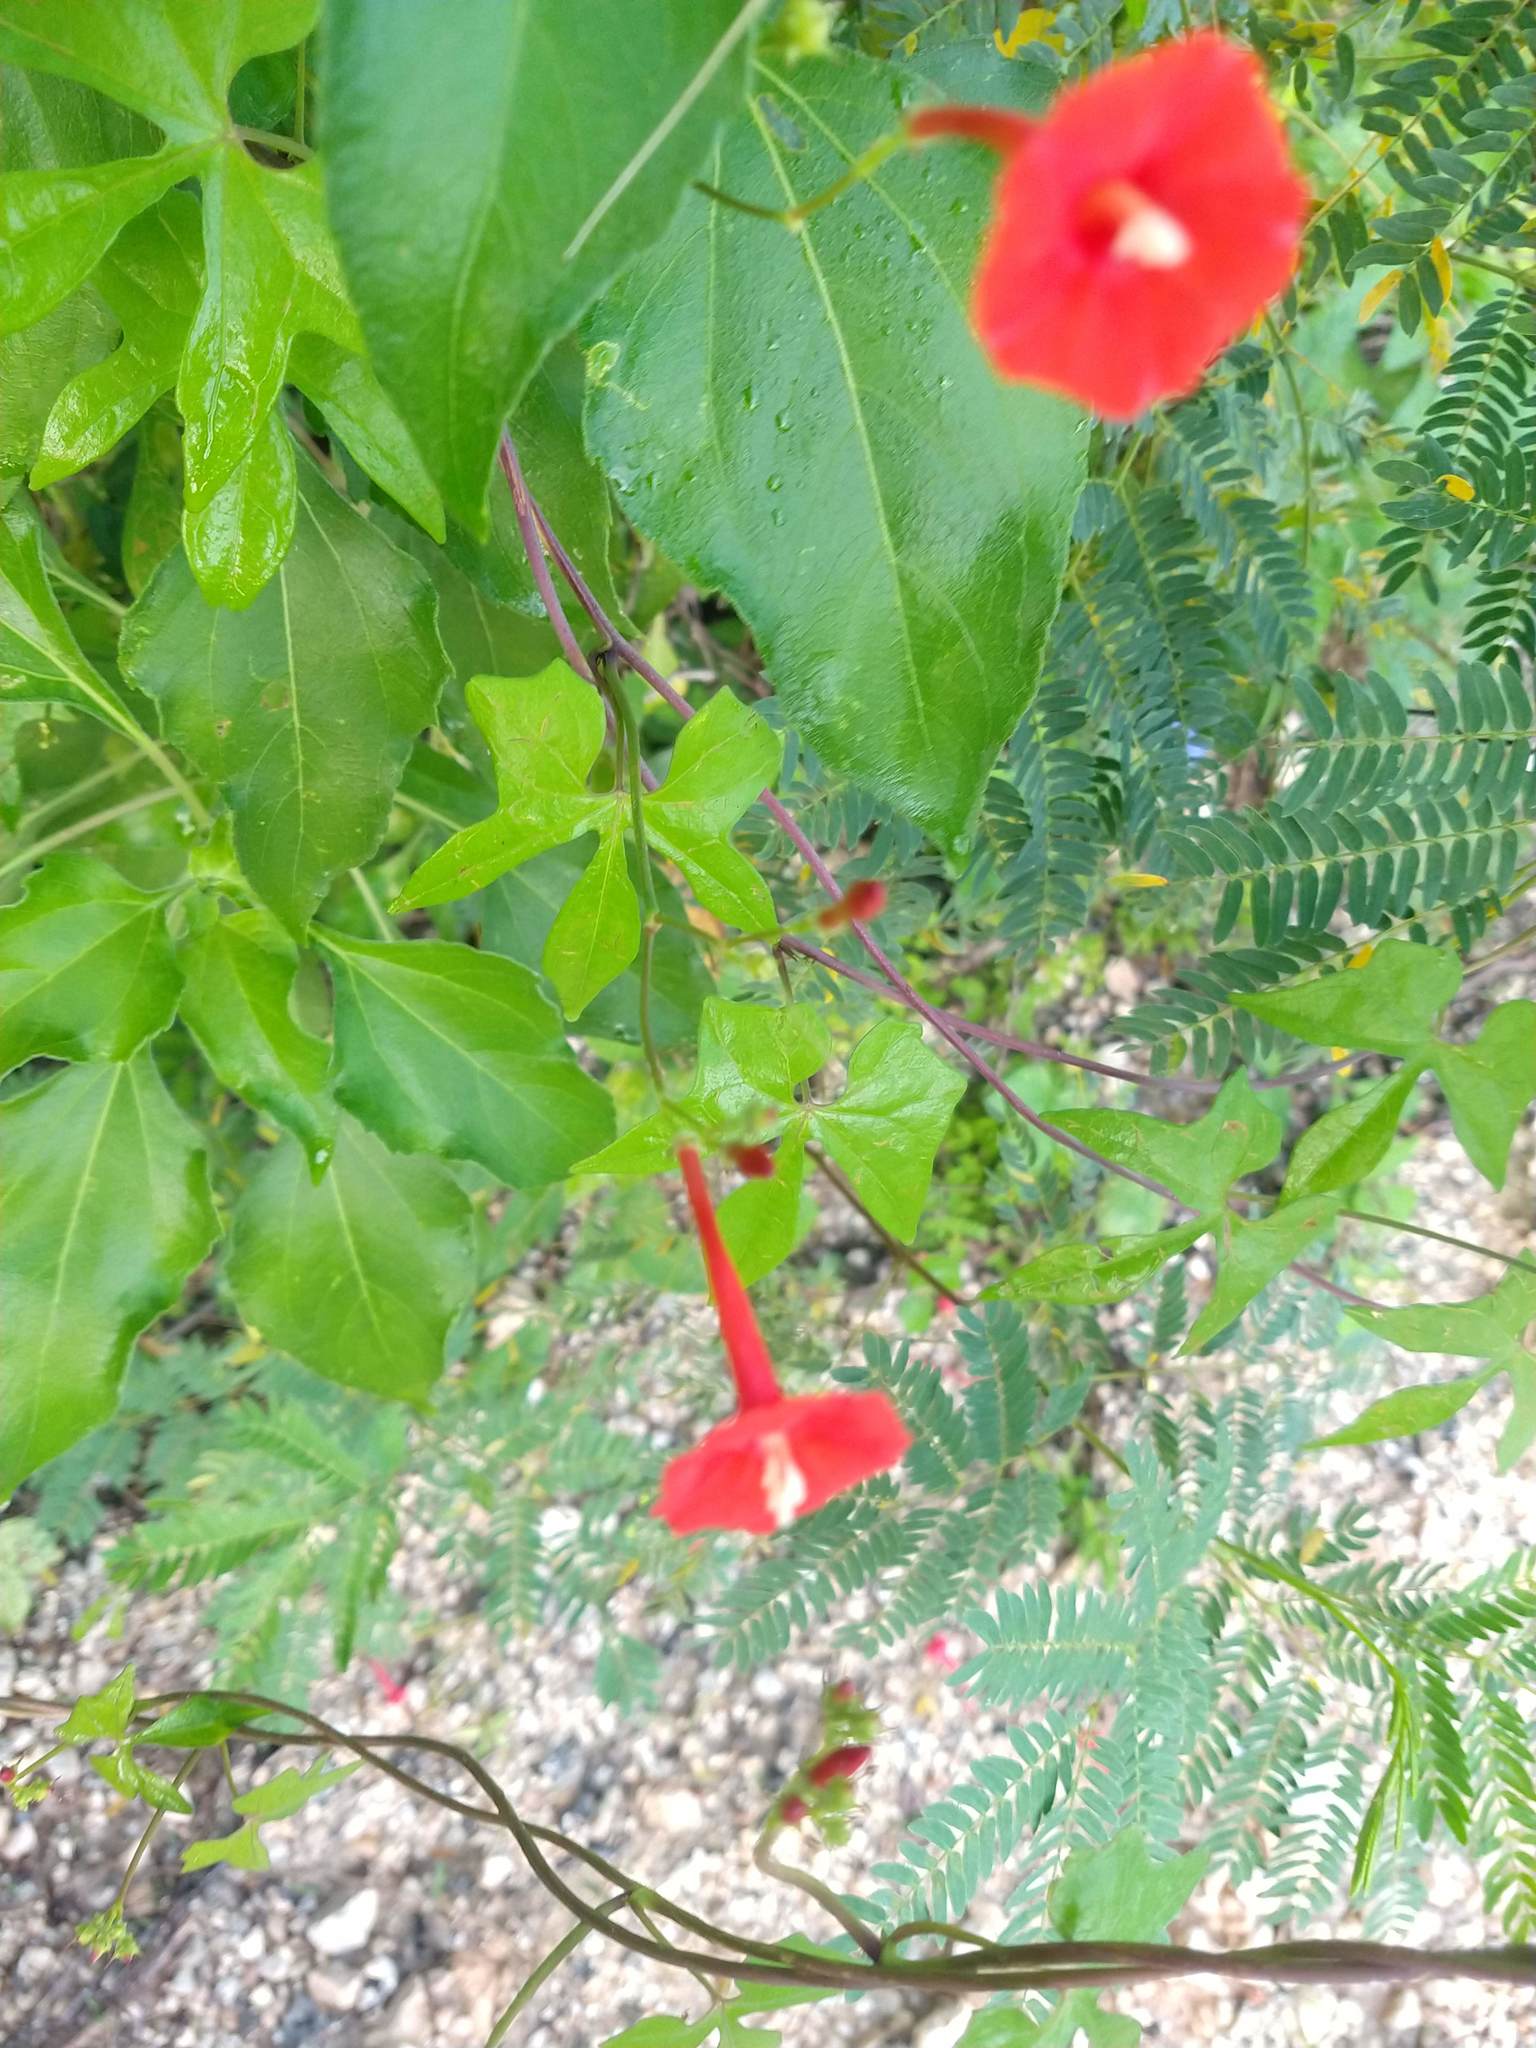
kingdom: Plantae
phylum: Tracheophyta
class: Magnoliopsida
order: Solanales
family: Convolvulaceae
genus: Ipomoea
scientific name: Ipomoea hederifolia
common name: Ivy-leaf morning-glory
